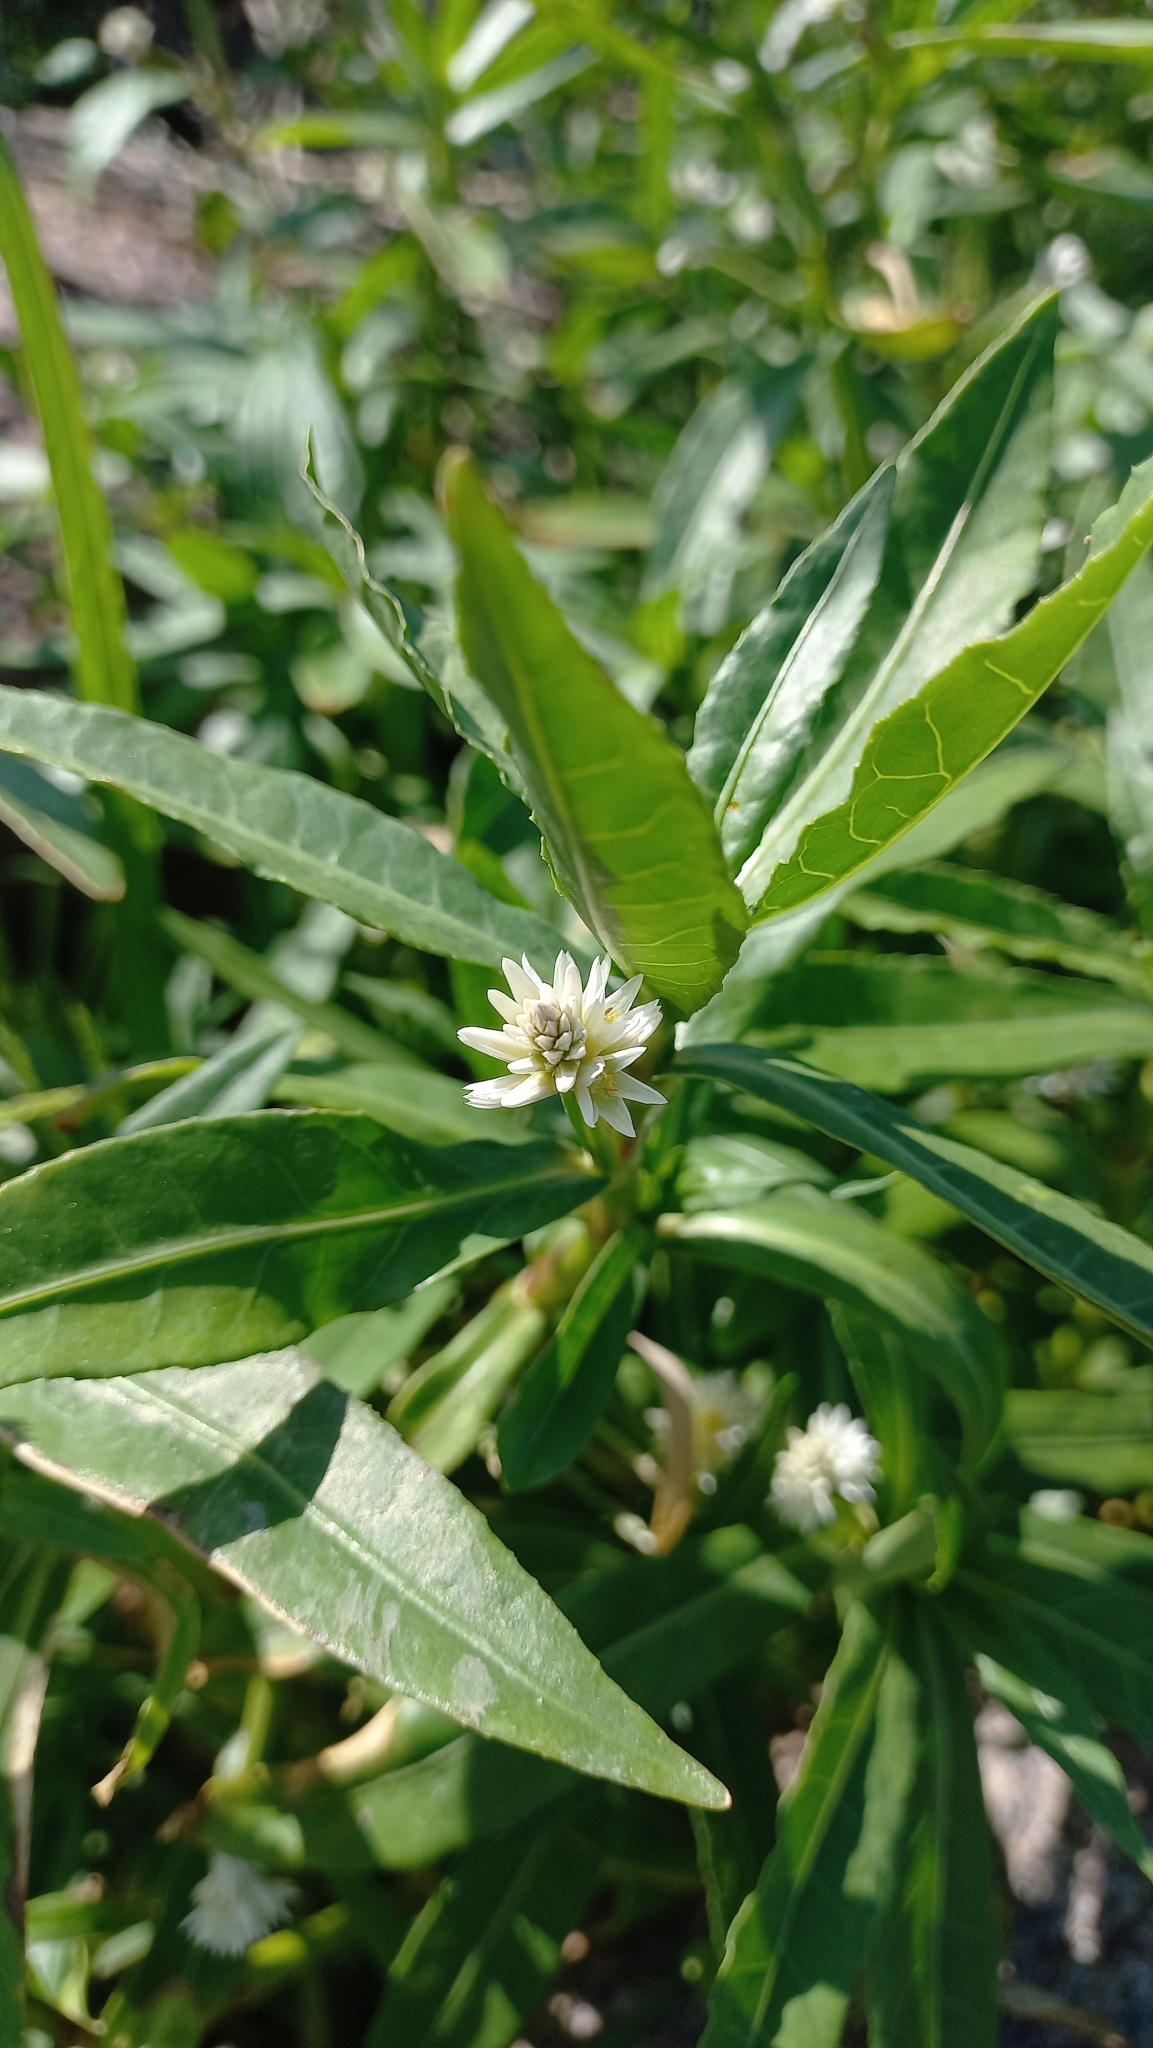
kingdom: Plantae
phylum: Tracheophyta
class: Magnoliopsida
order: Caryophyllales
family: Amaranthaceae
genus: Alternanthera
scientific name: Alternanthera philoxeroides
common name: Alligatorweed
